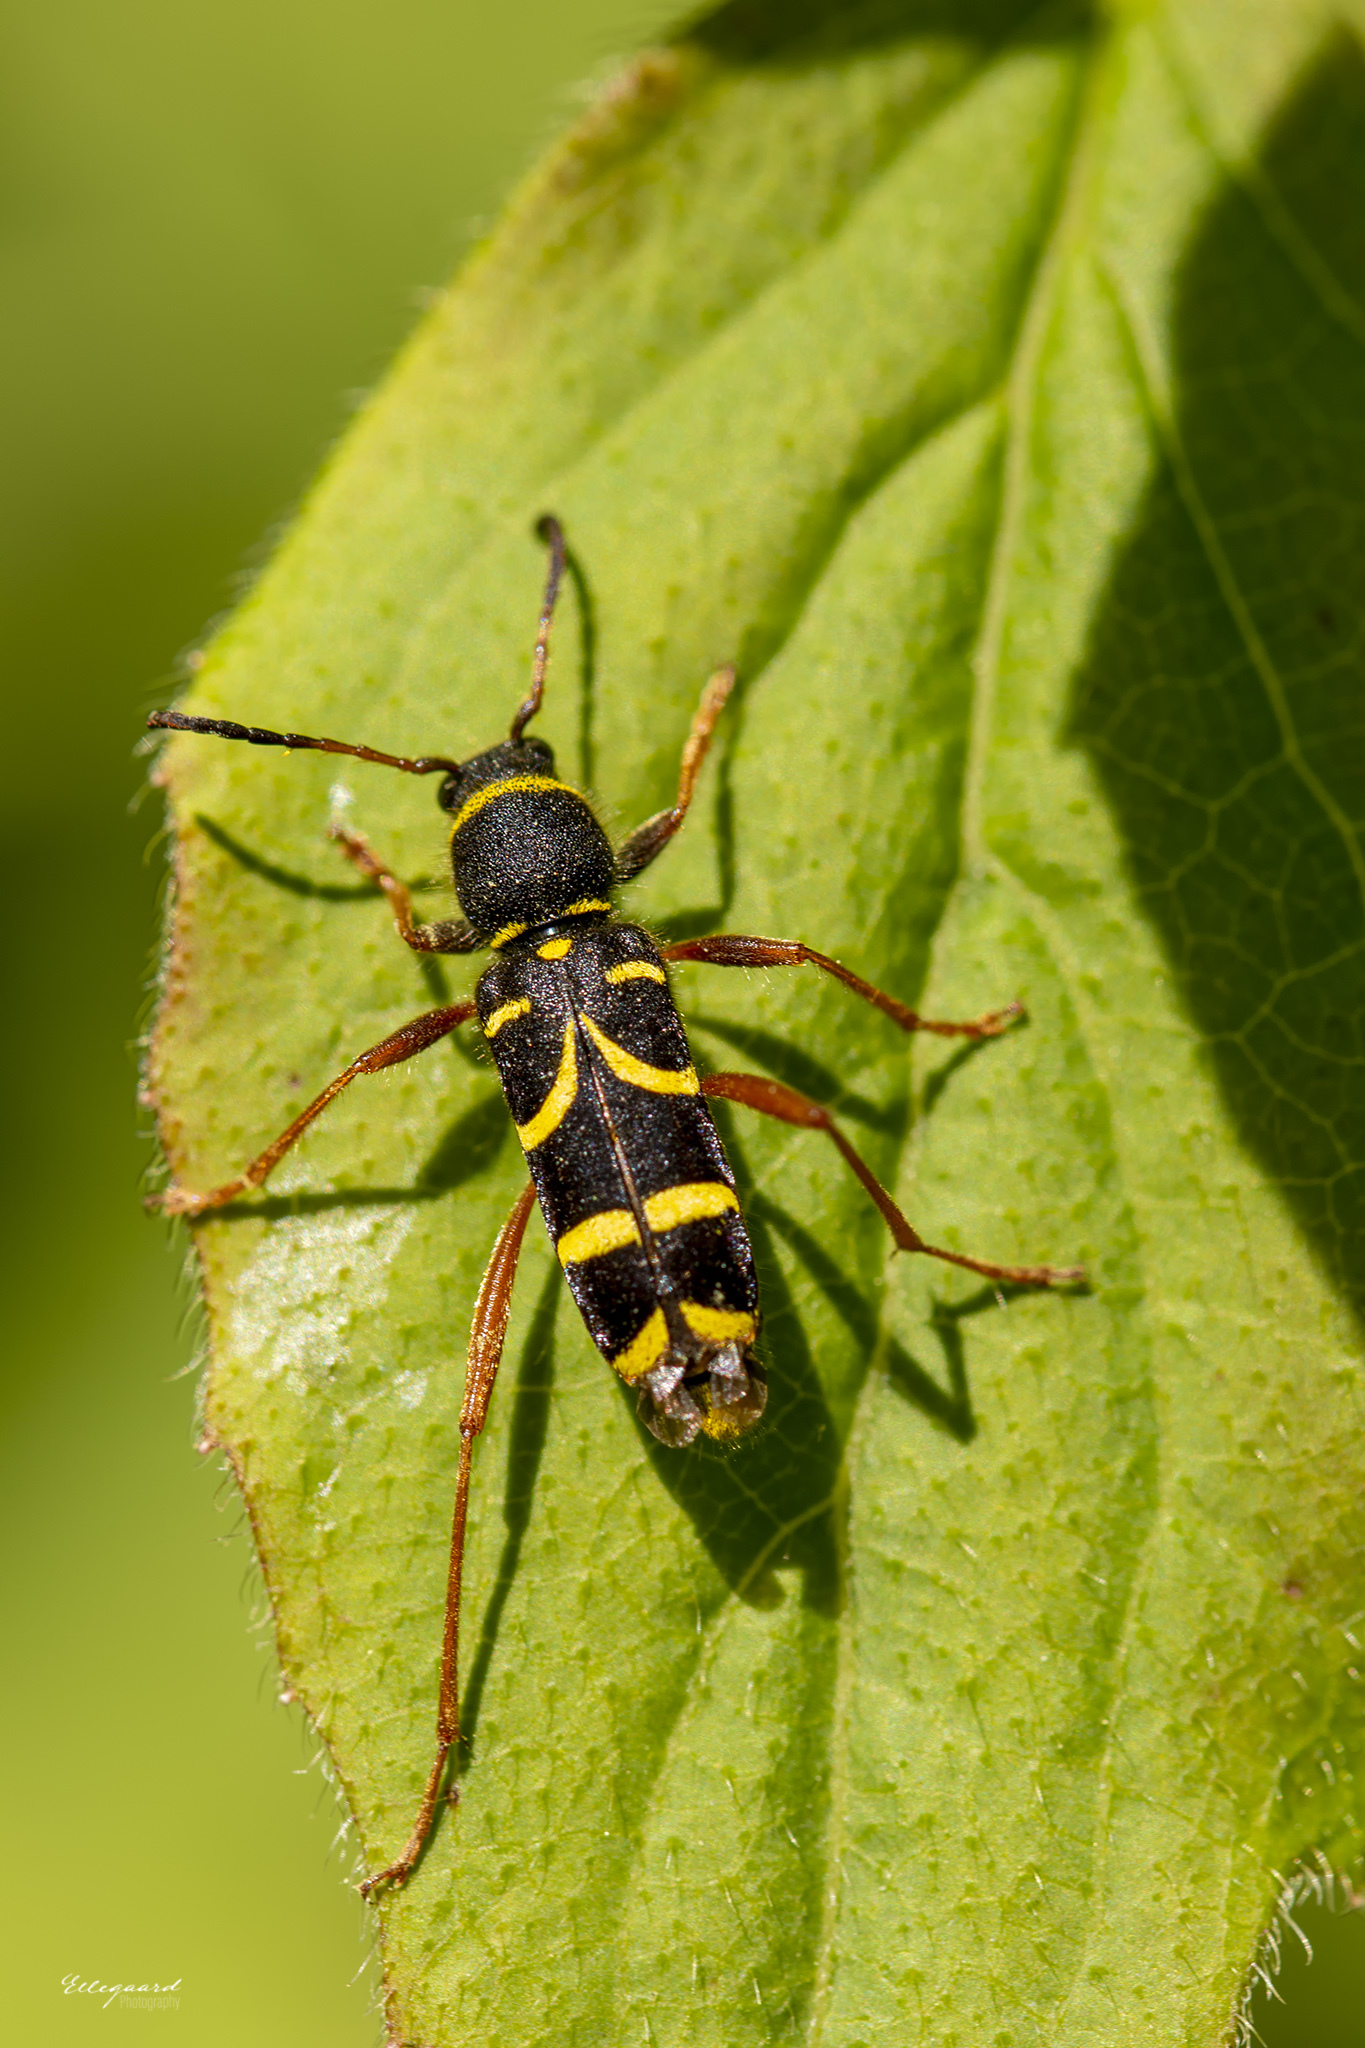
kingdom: Animalia
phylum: Arthropoda
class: Insecta
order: Coleoptera
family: Cerambycidae
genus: Clytus
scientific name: Clytus arietis
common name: Wasp beetle
